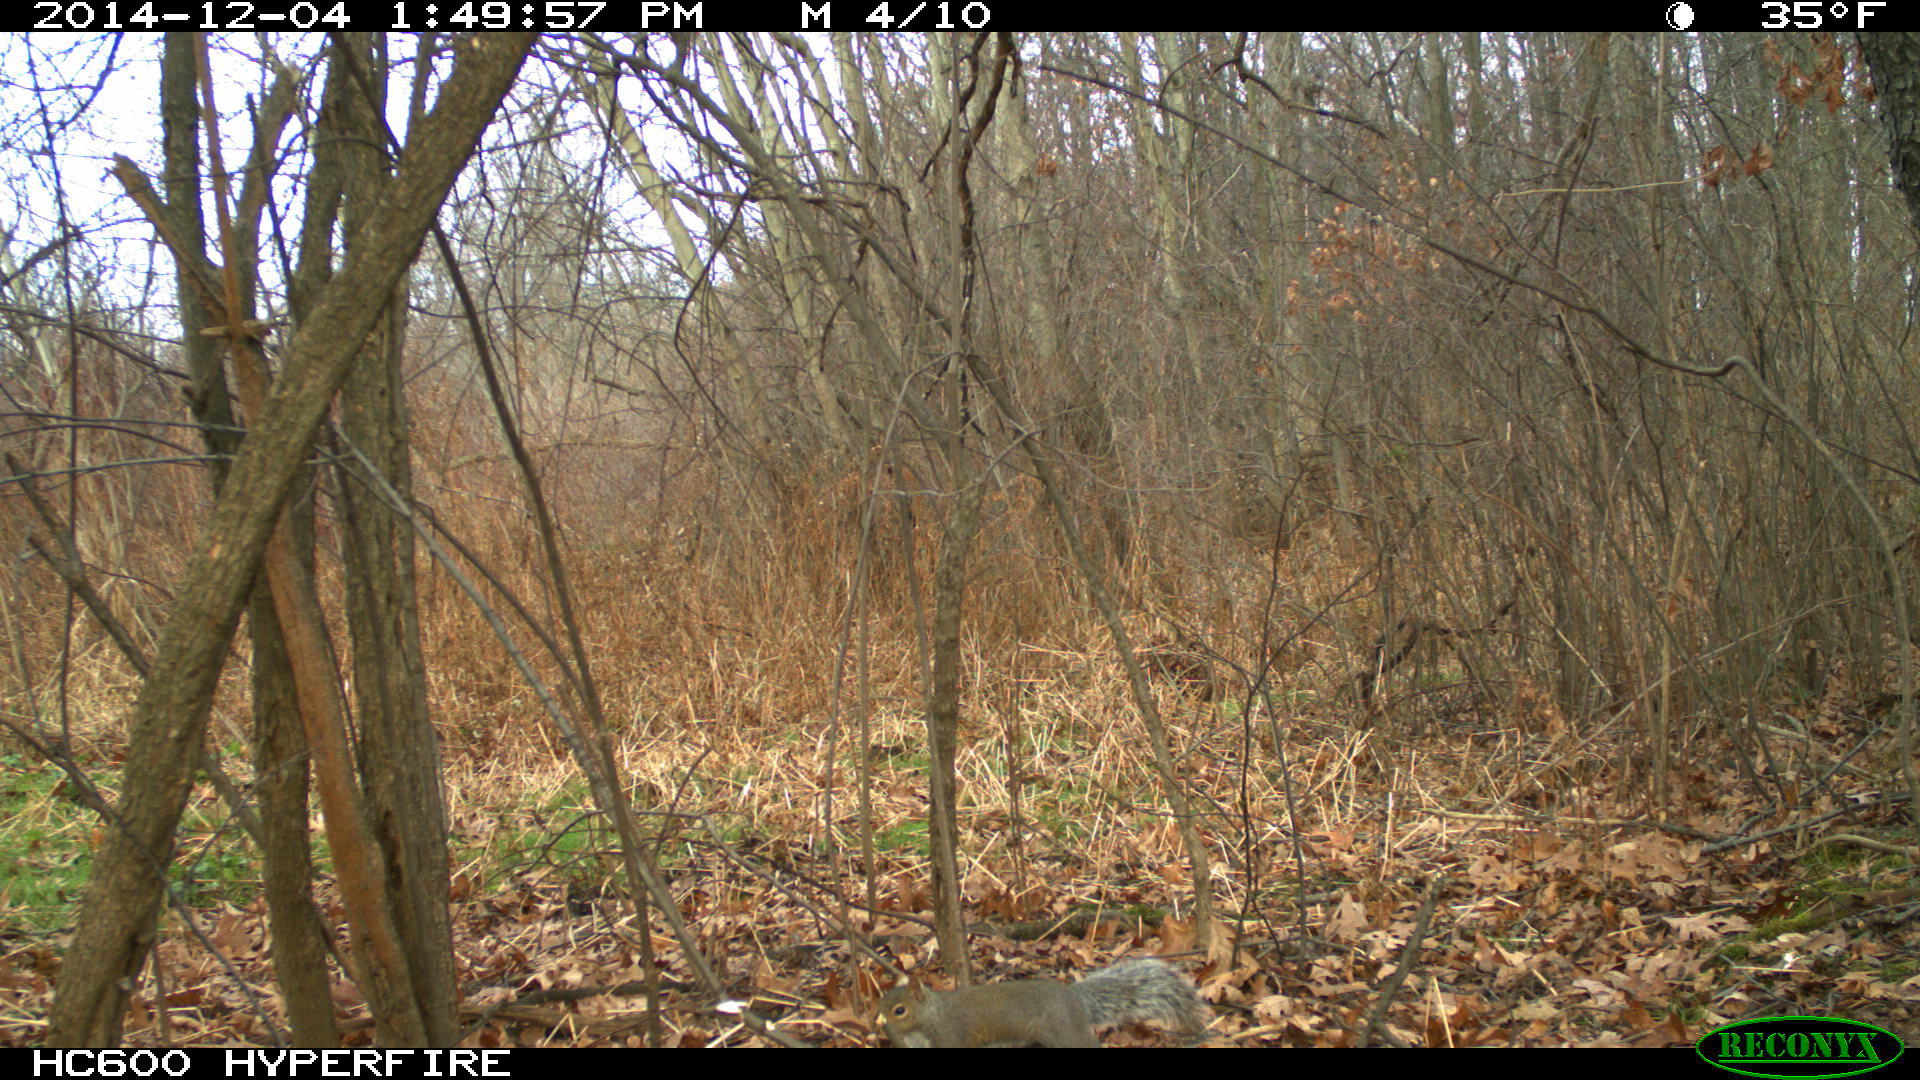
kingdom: Animalia
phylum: Chordata
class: Mammalia
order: Rodentia
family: Sciuridae
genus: Sciurus
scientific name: Sciurus carolinensis
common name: Eastern gray squirrel
